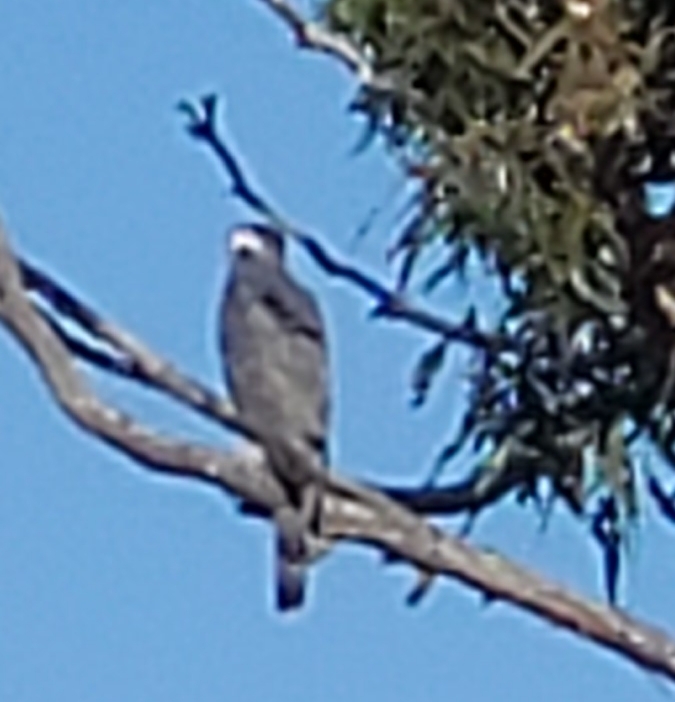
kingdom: Animalia
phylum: Chordata
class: Aves
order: Accipitriformes
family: Accipitridae
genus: Accipiter
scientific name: Accipiter cooperii
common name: Cooper's hawk
